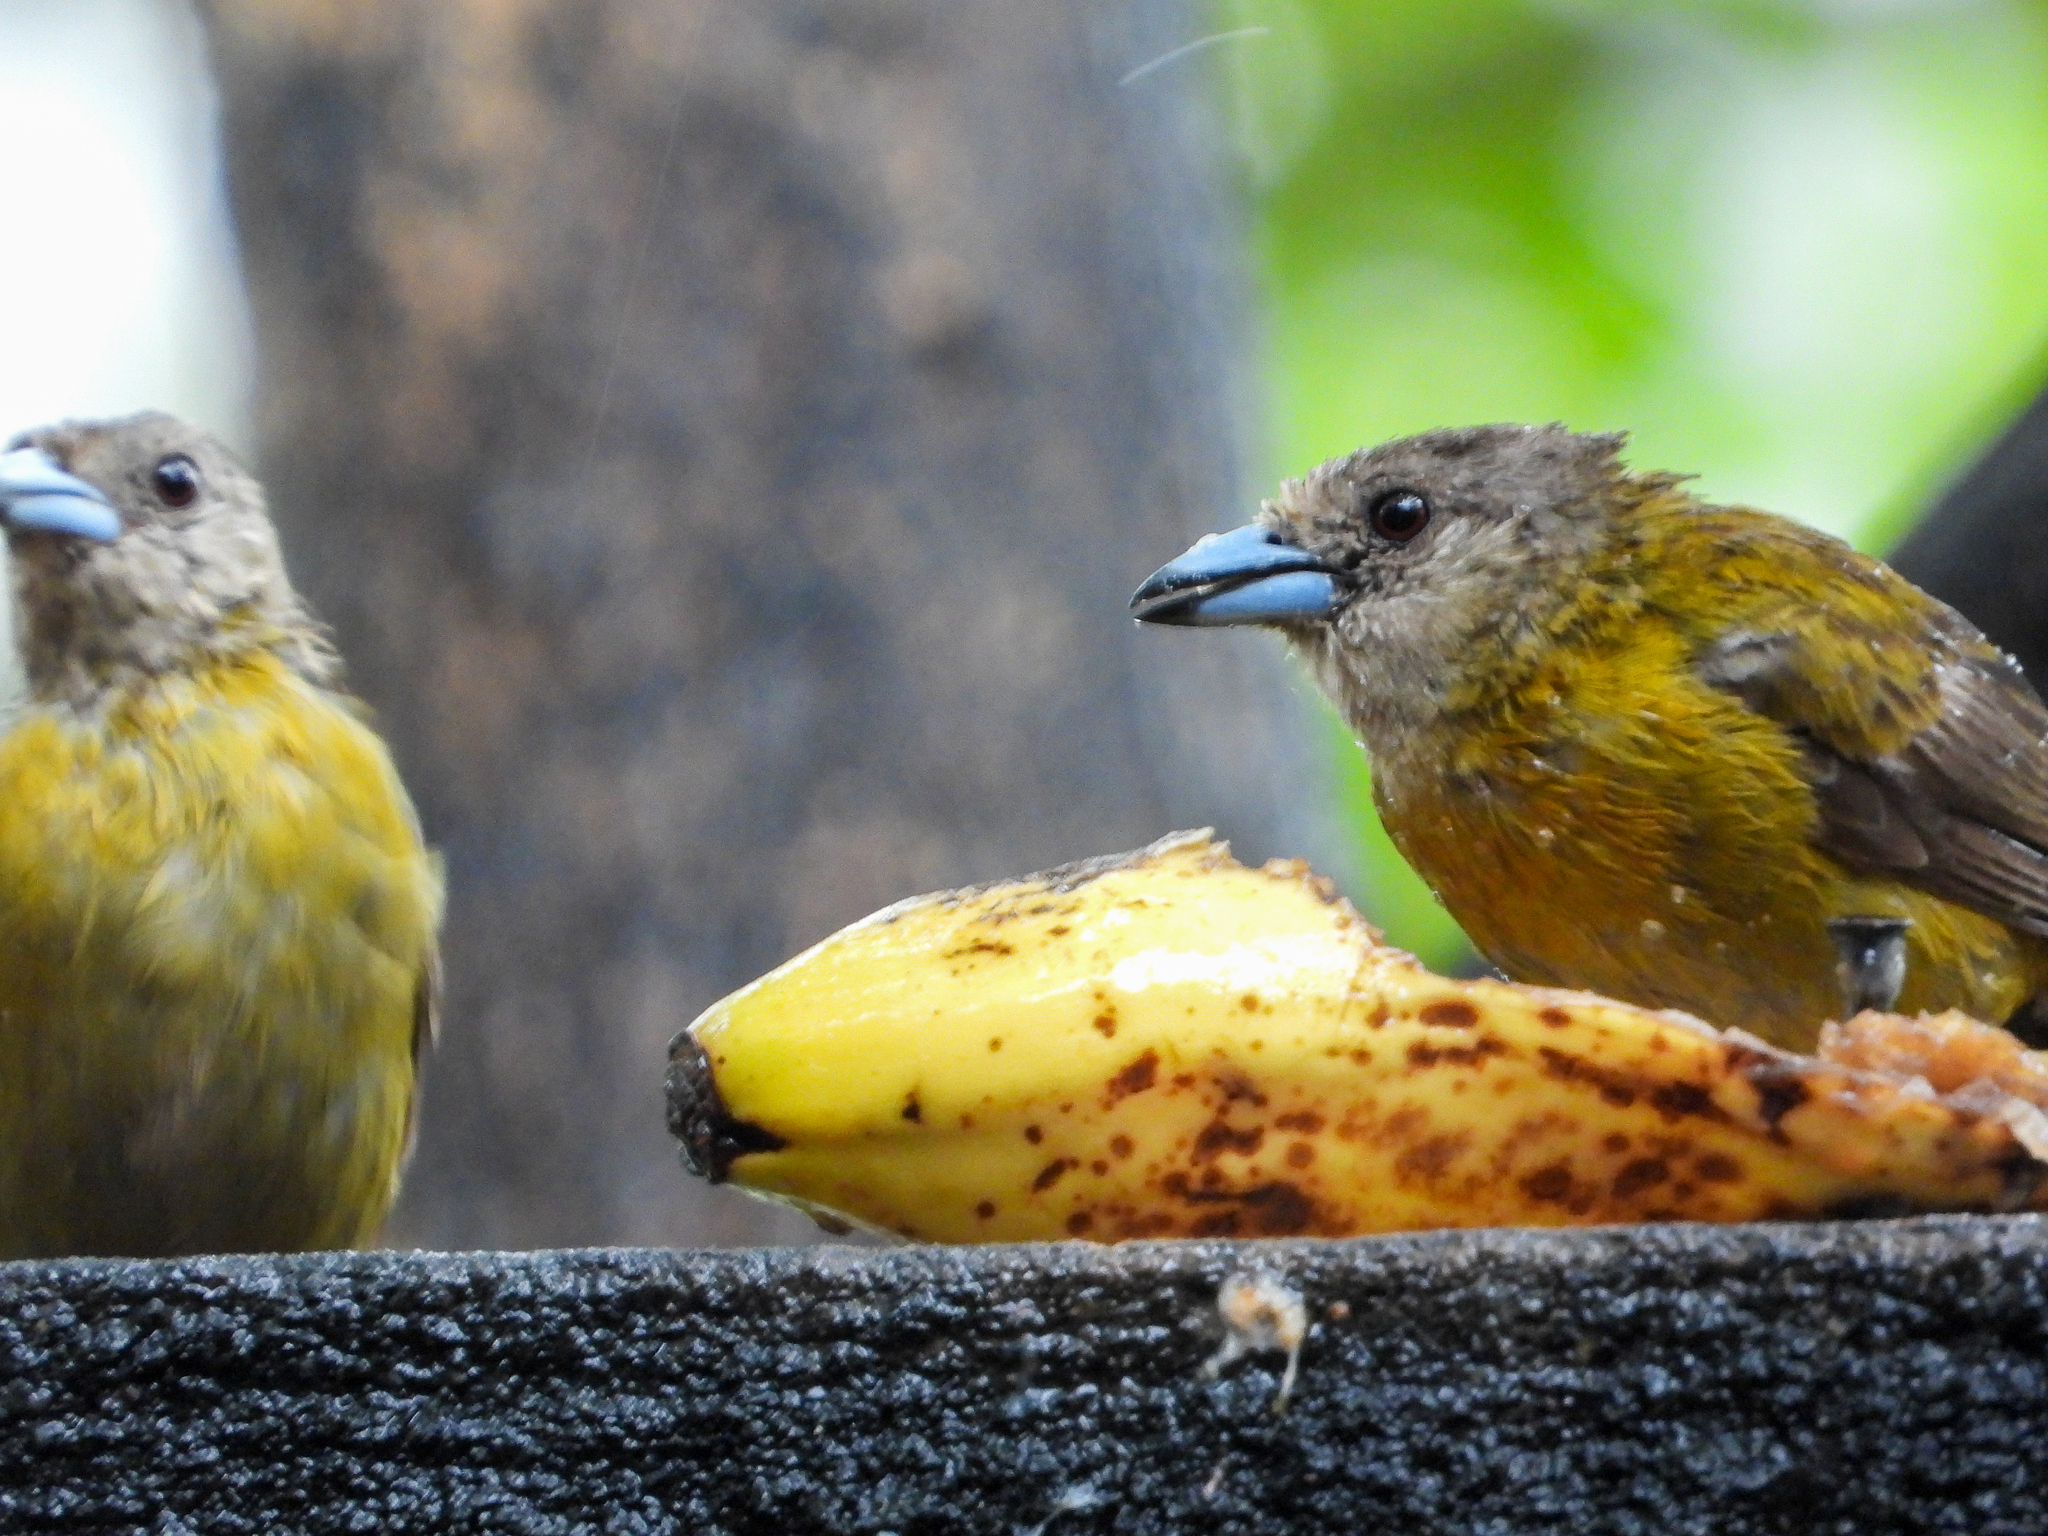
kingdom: Animalia
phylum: Chordata
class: Aves
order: Passeriformes
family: Thraupidae
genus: Ramphocelus
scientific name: Ramphocelus passerinii
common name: Passerini's tanager
